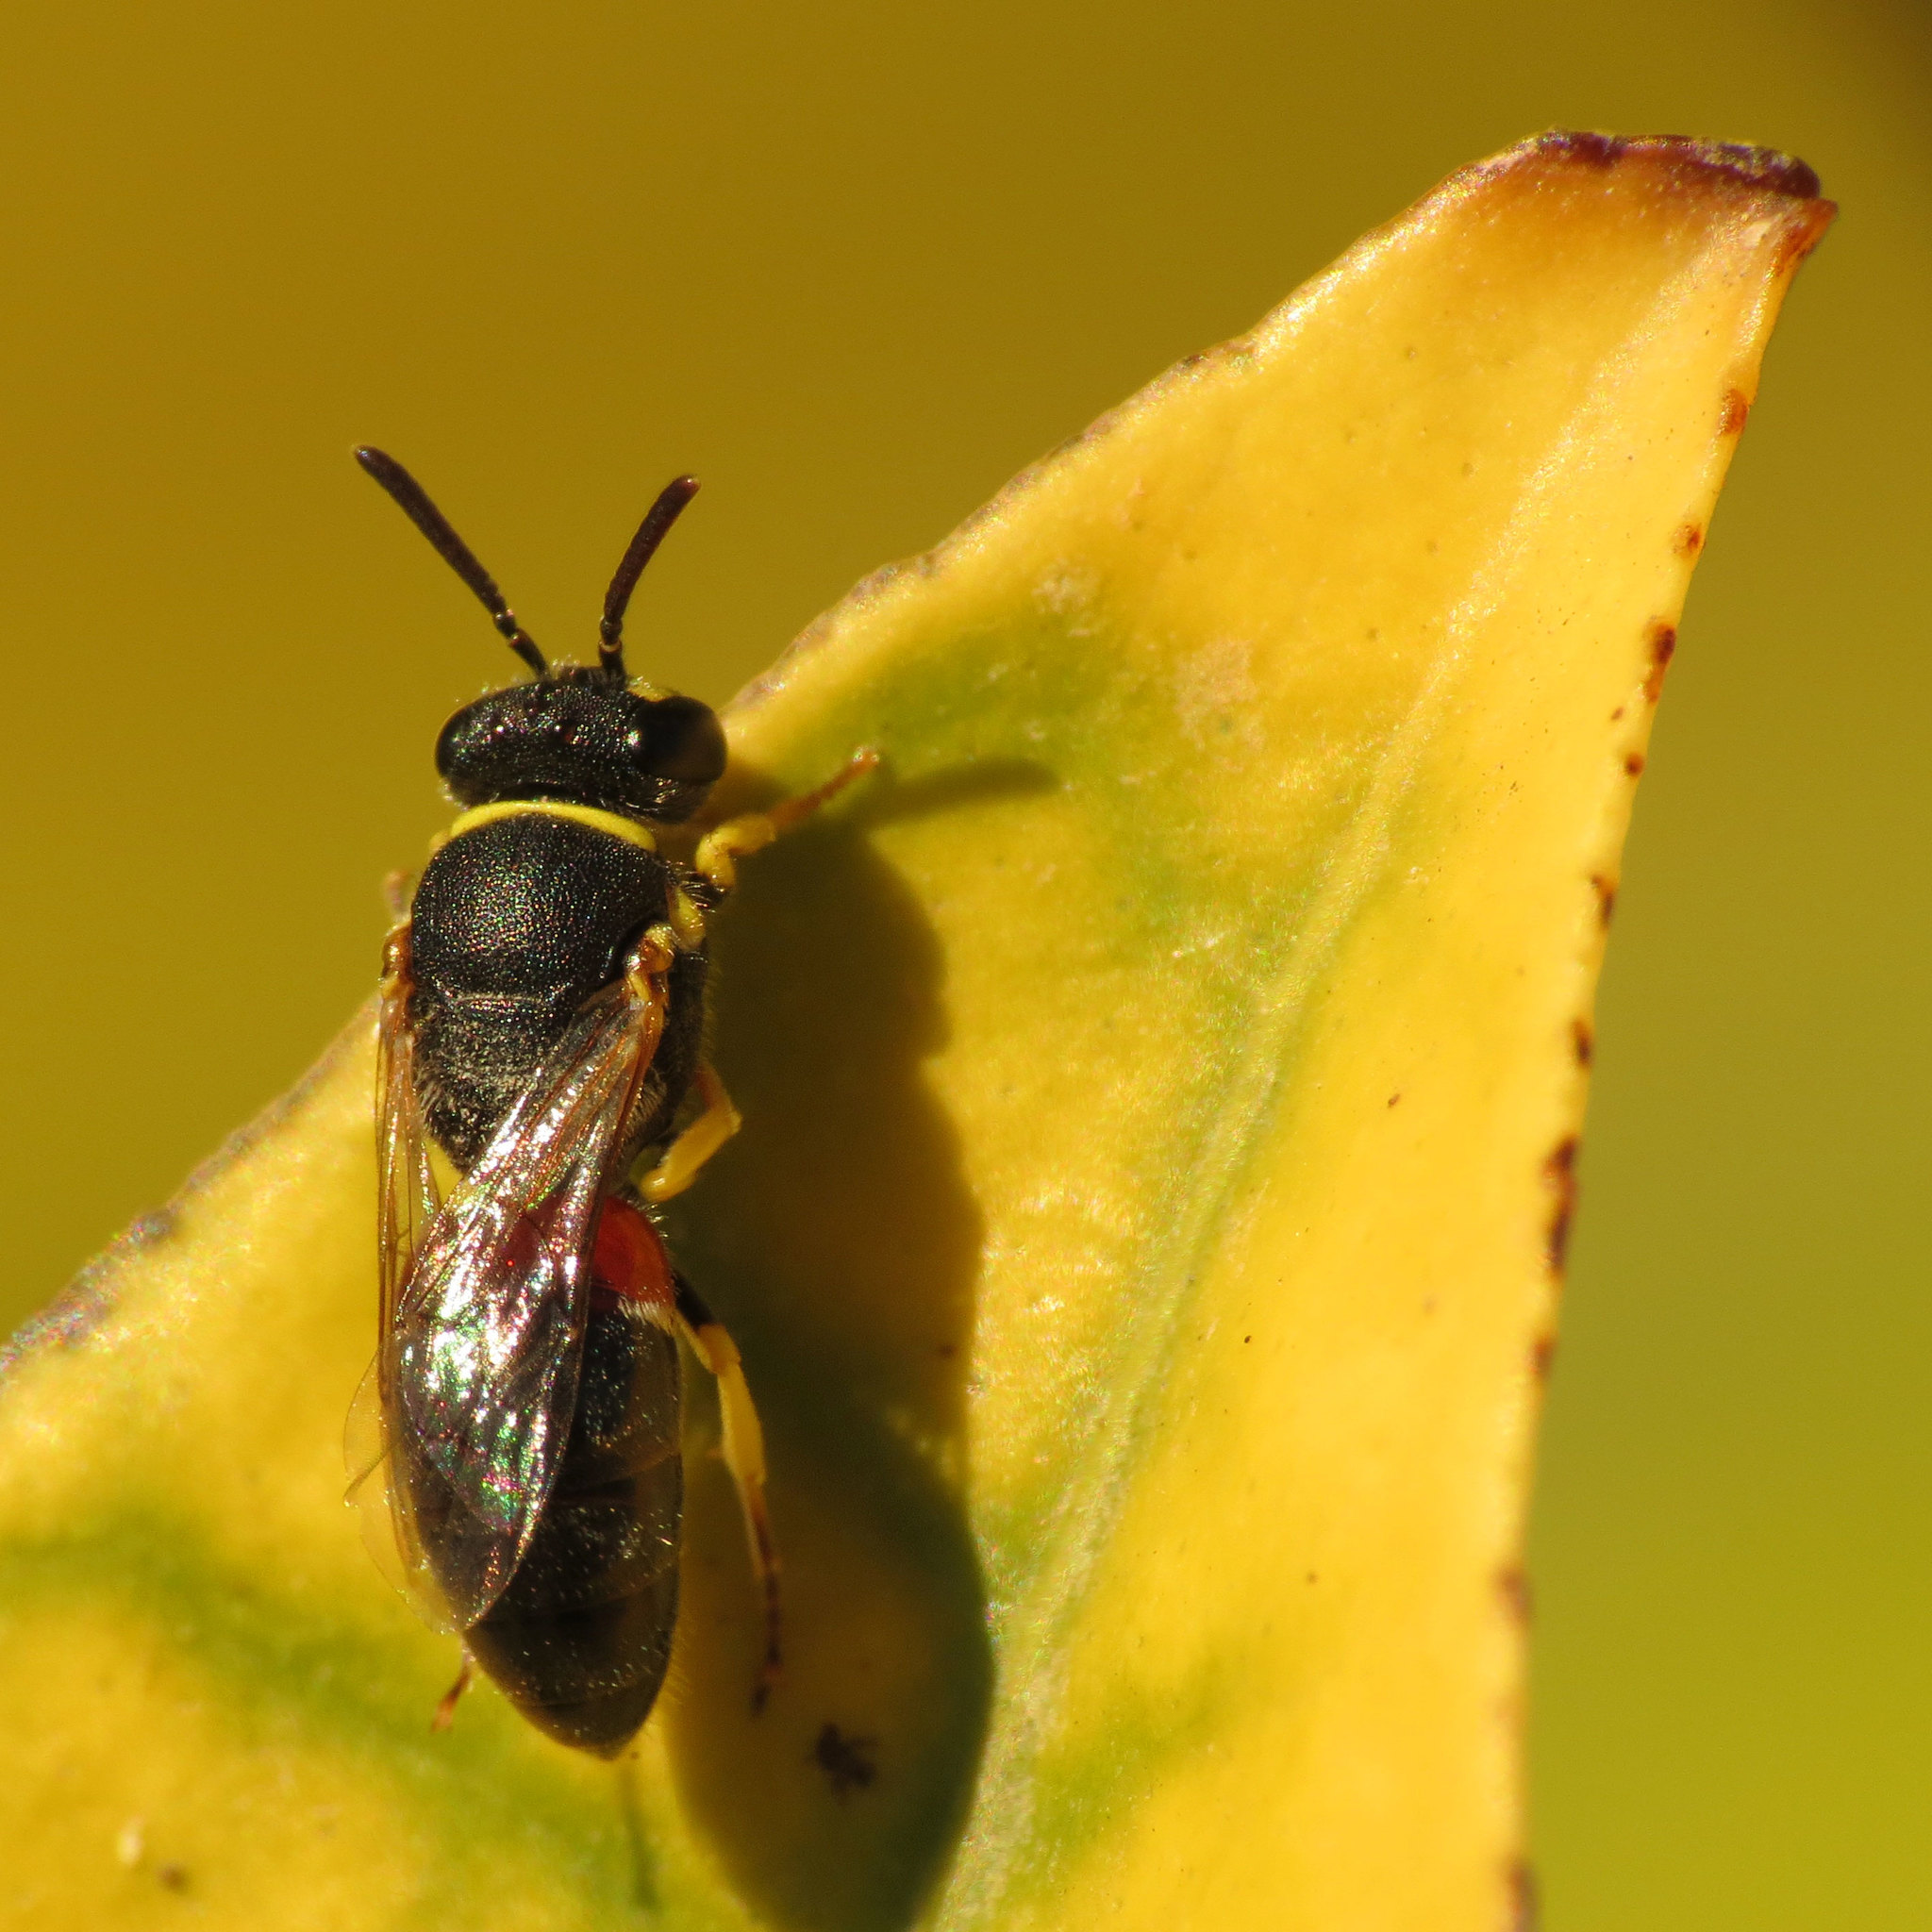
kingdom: Animalia
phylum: Arthropoda
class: Insecta
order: Hymenoptera
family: Colletidae
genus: Hylaeus
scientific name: Hylaeus sulphuripes
